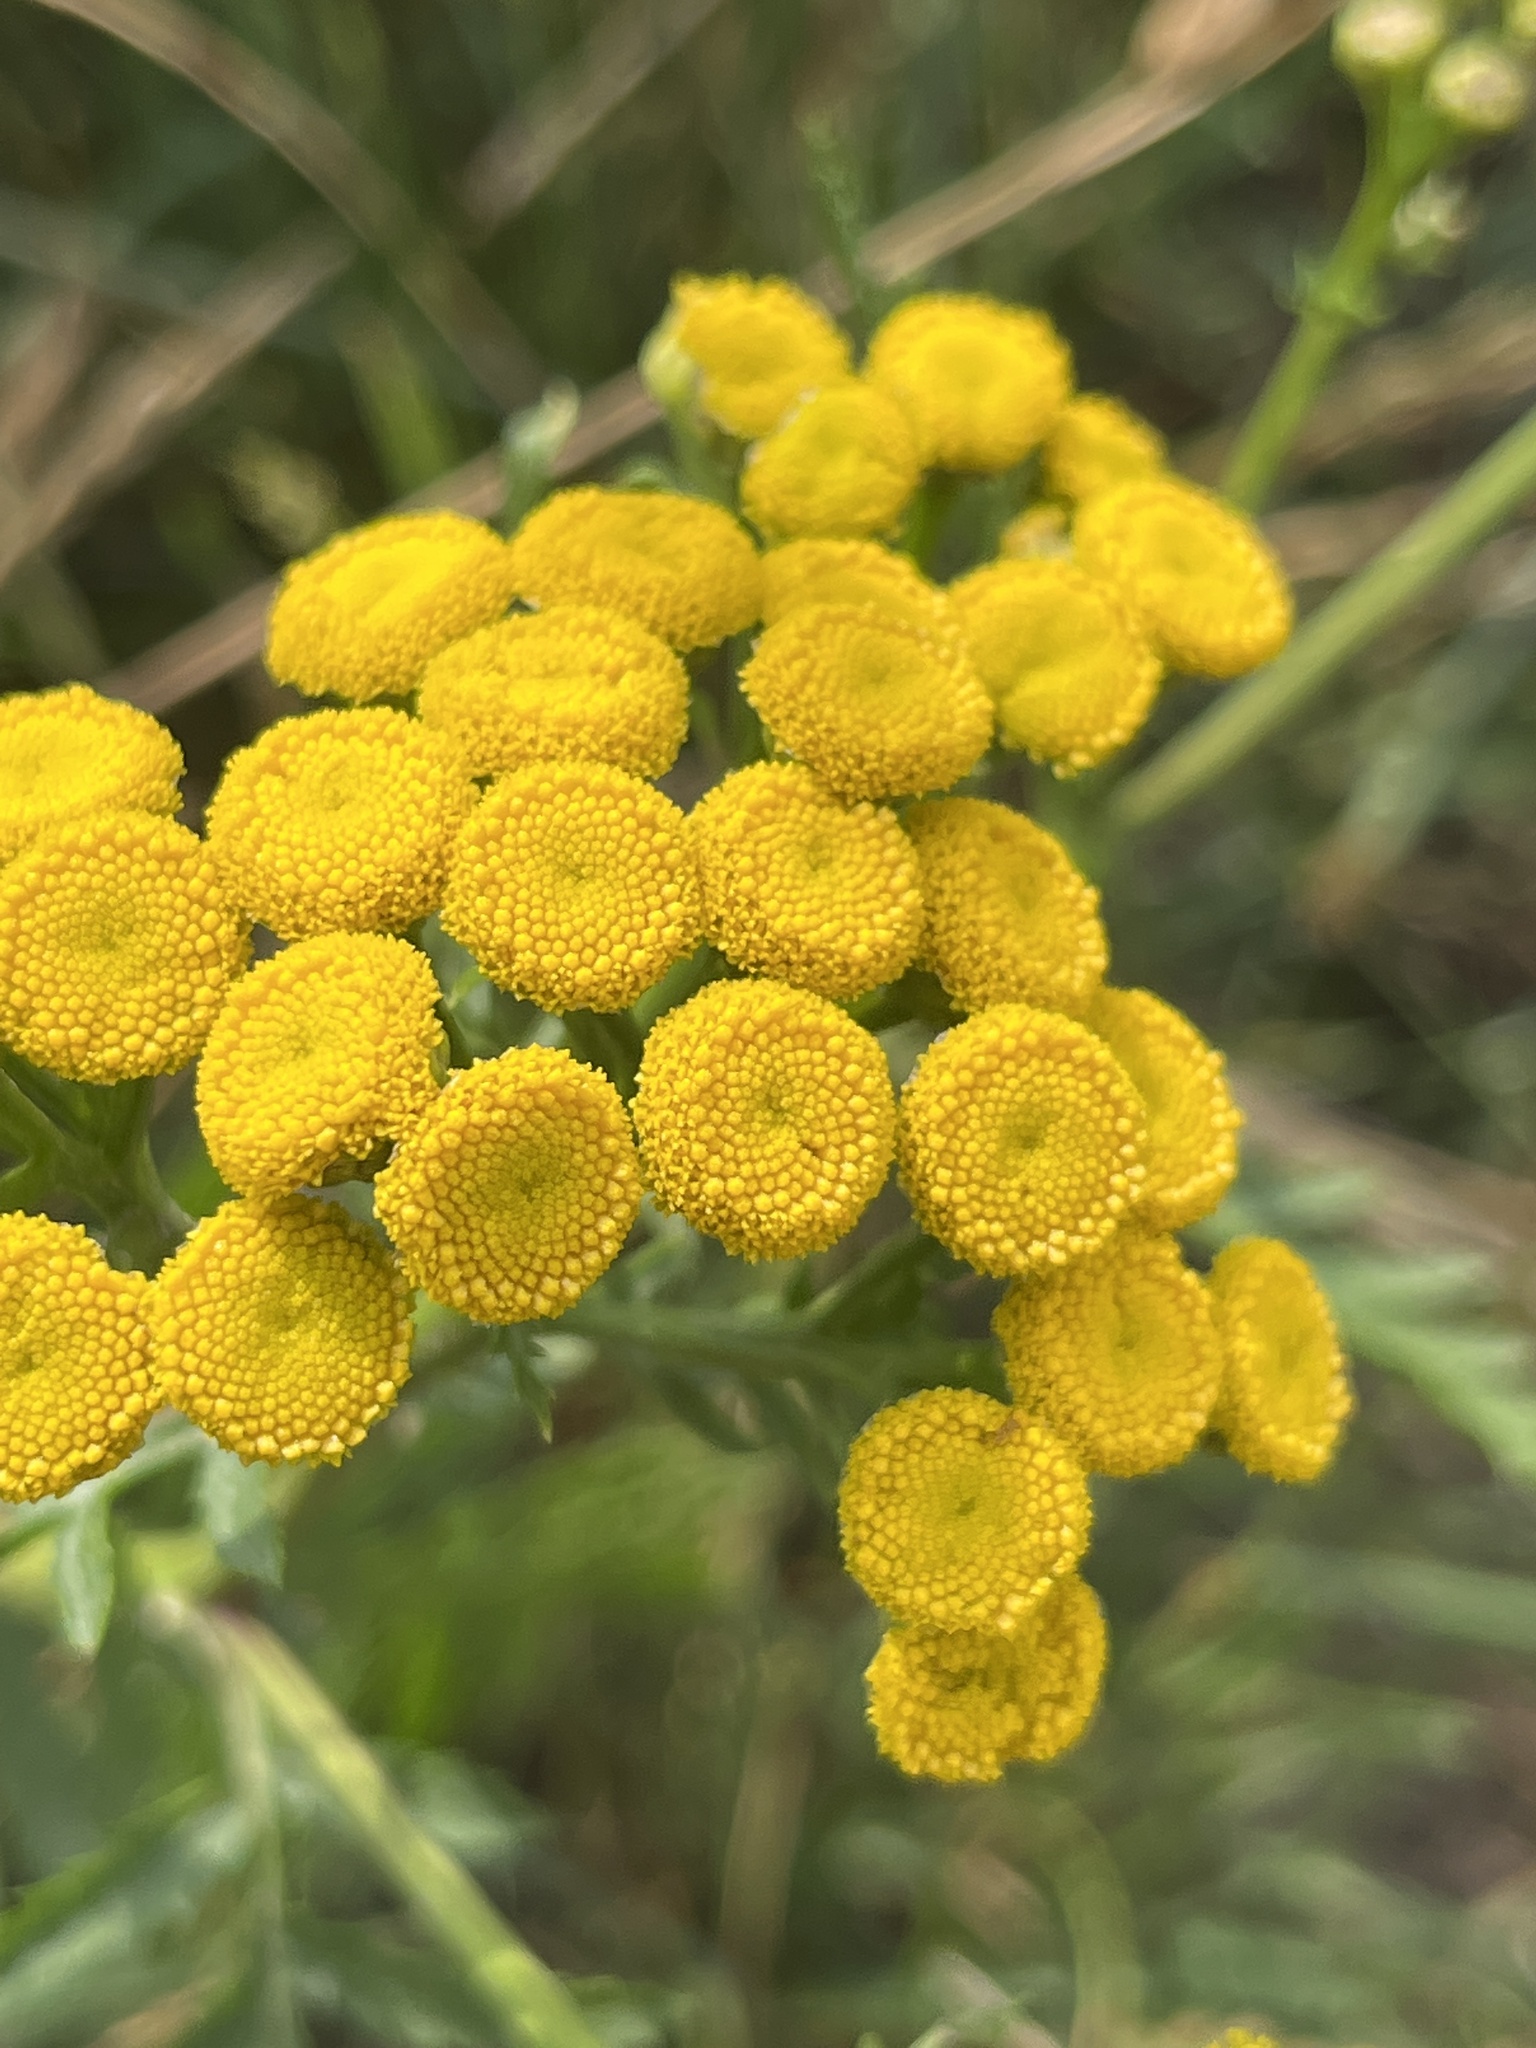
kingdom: Plantae
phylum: Tracheophyta
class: Magnoliopsida
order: Asterales
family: Asteraceae
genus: Tanacetum
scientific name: Tanacetum vulgare
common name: Common tansy
